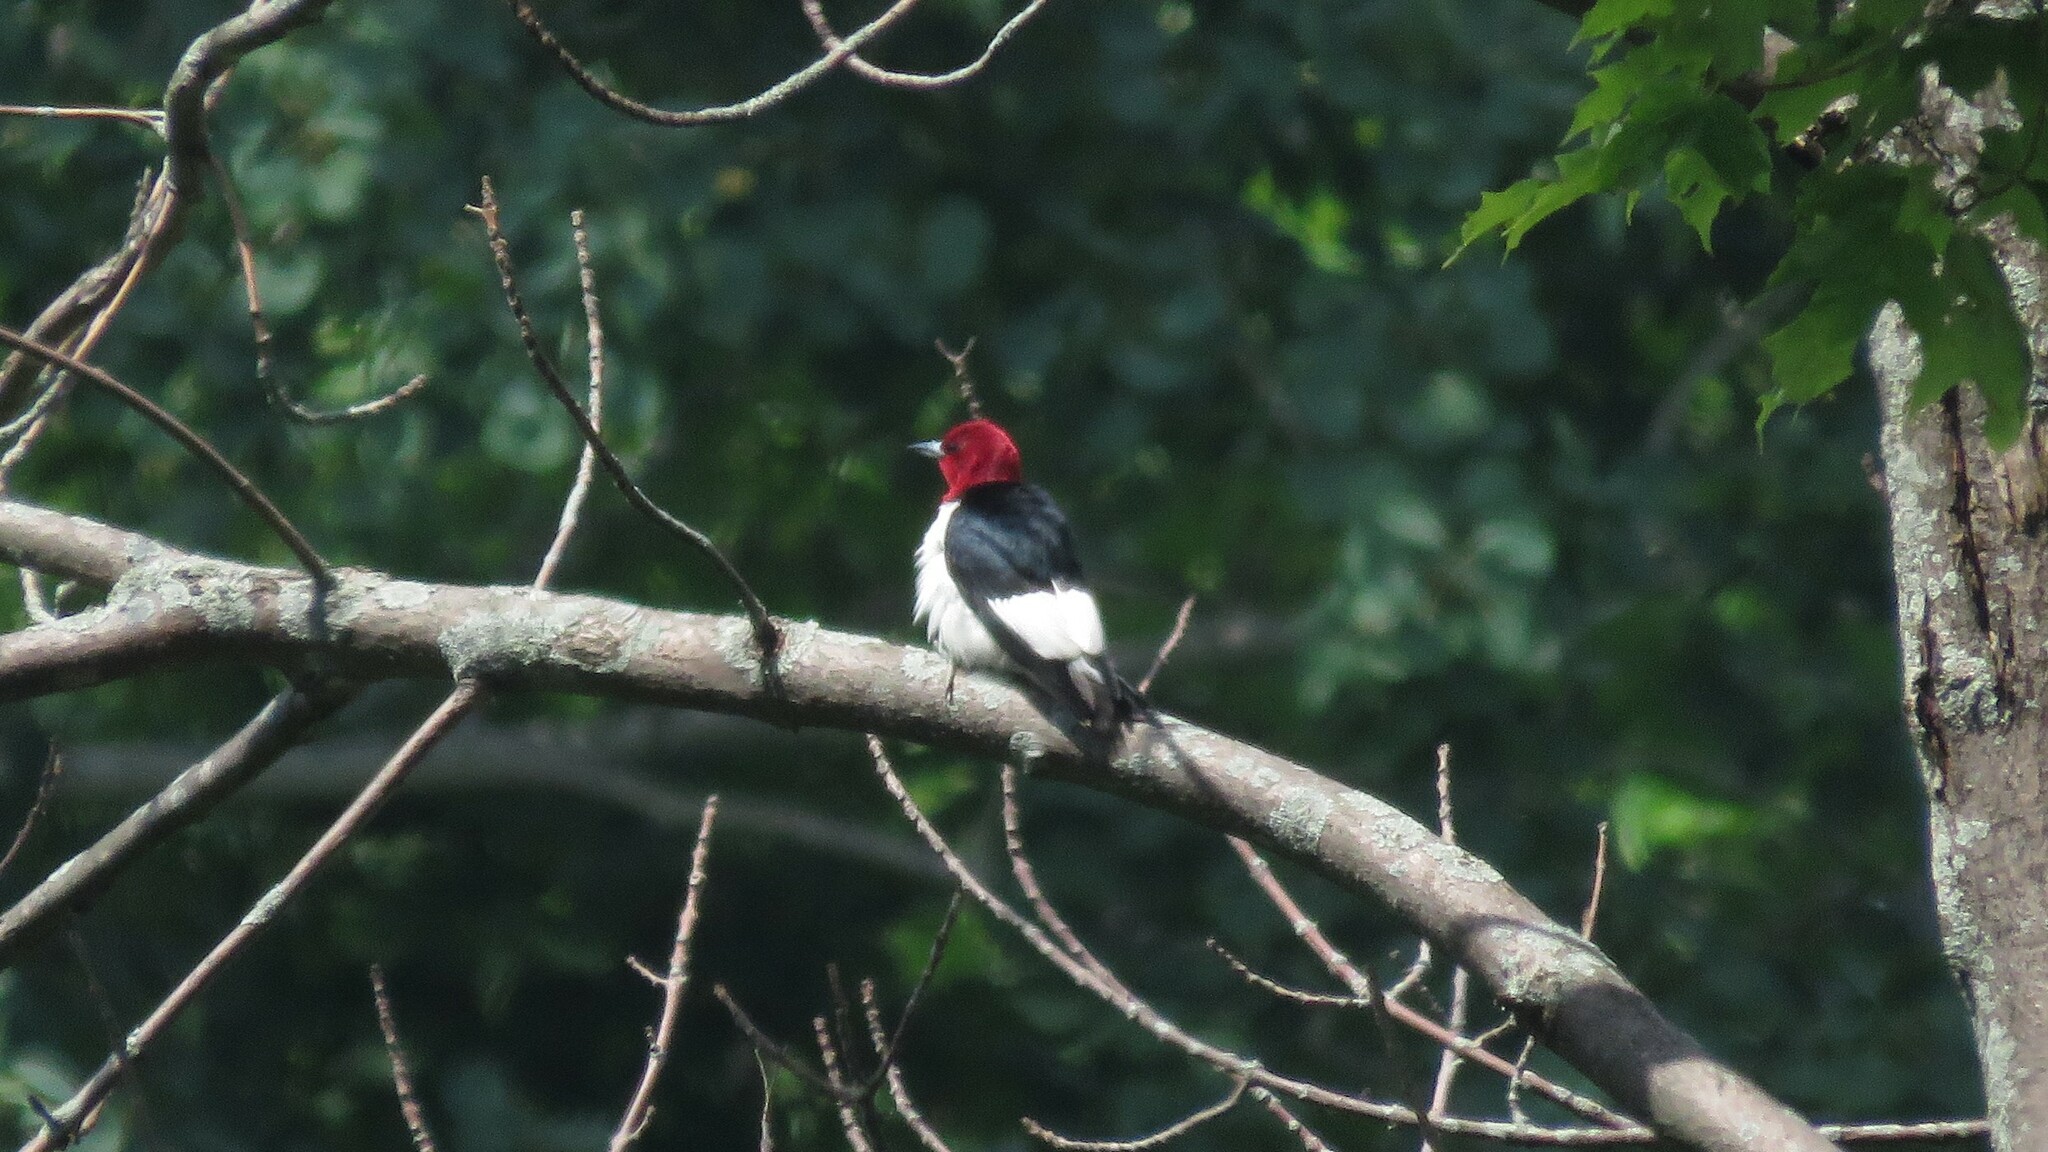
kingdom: Animalia
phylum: Chordata
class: Aves
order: Piciformes
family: Picidae
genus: Melanerpes
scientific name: Melanerpes erythrocephalus
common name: Red-headed woodpecker
